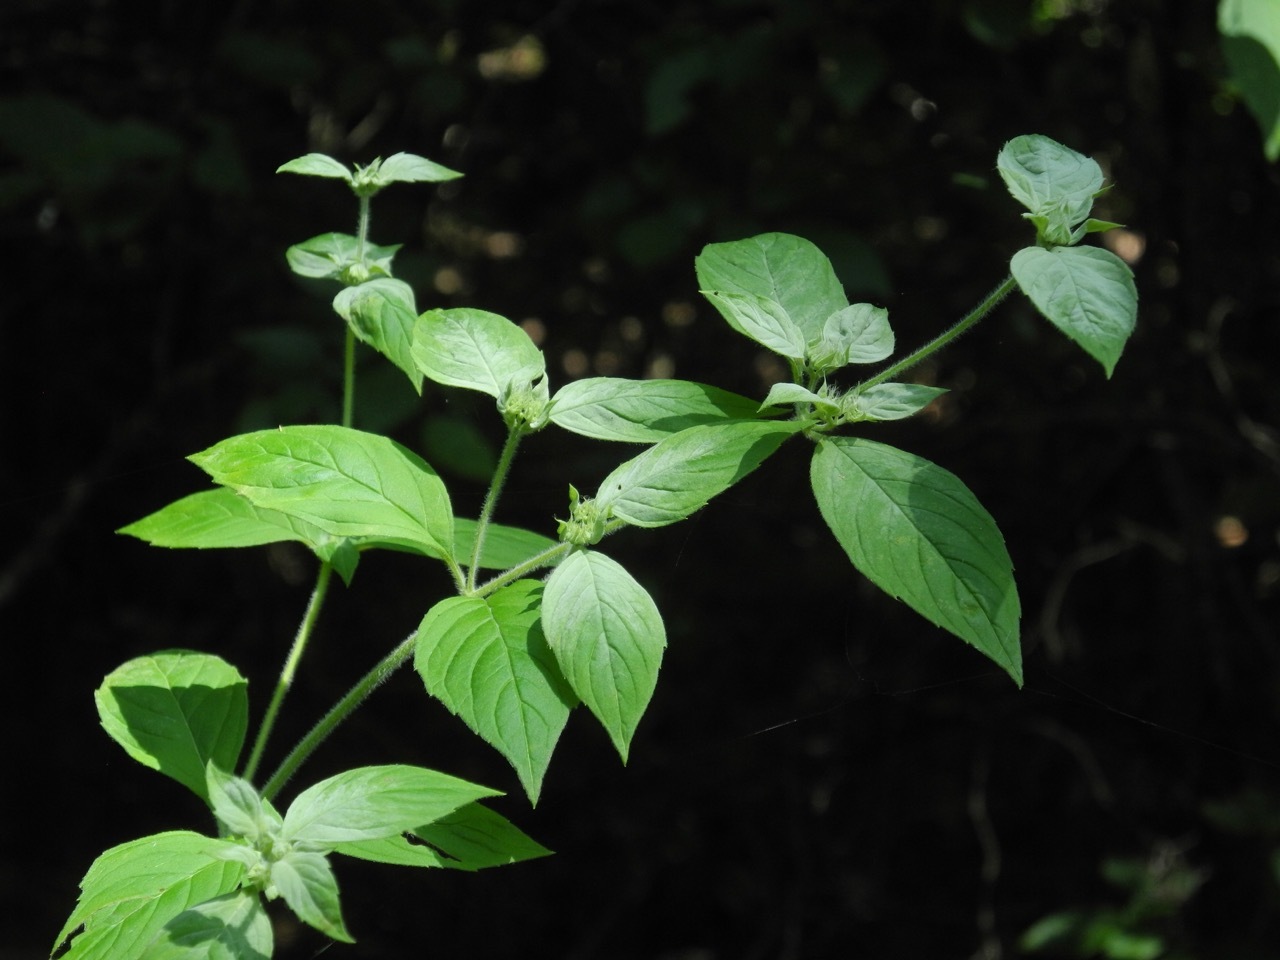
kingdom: Plantae
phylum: Tracheophyta
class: Magnoliopsida
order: Lamiales
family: Lamiaceae
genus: Pycnanthemum
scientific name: Pycnanthemum incanum
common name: Hoary mountain-mint
